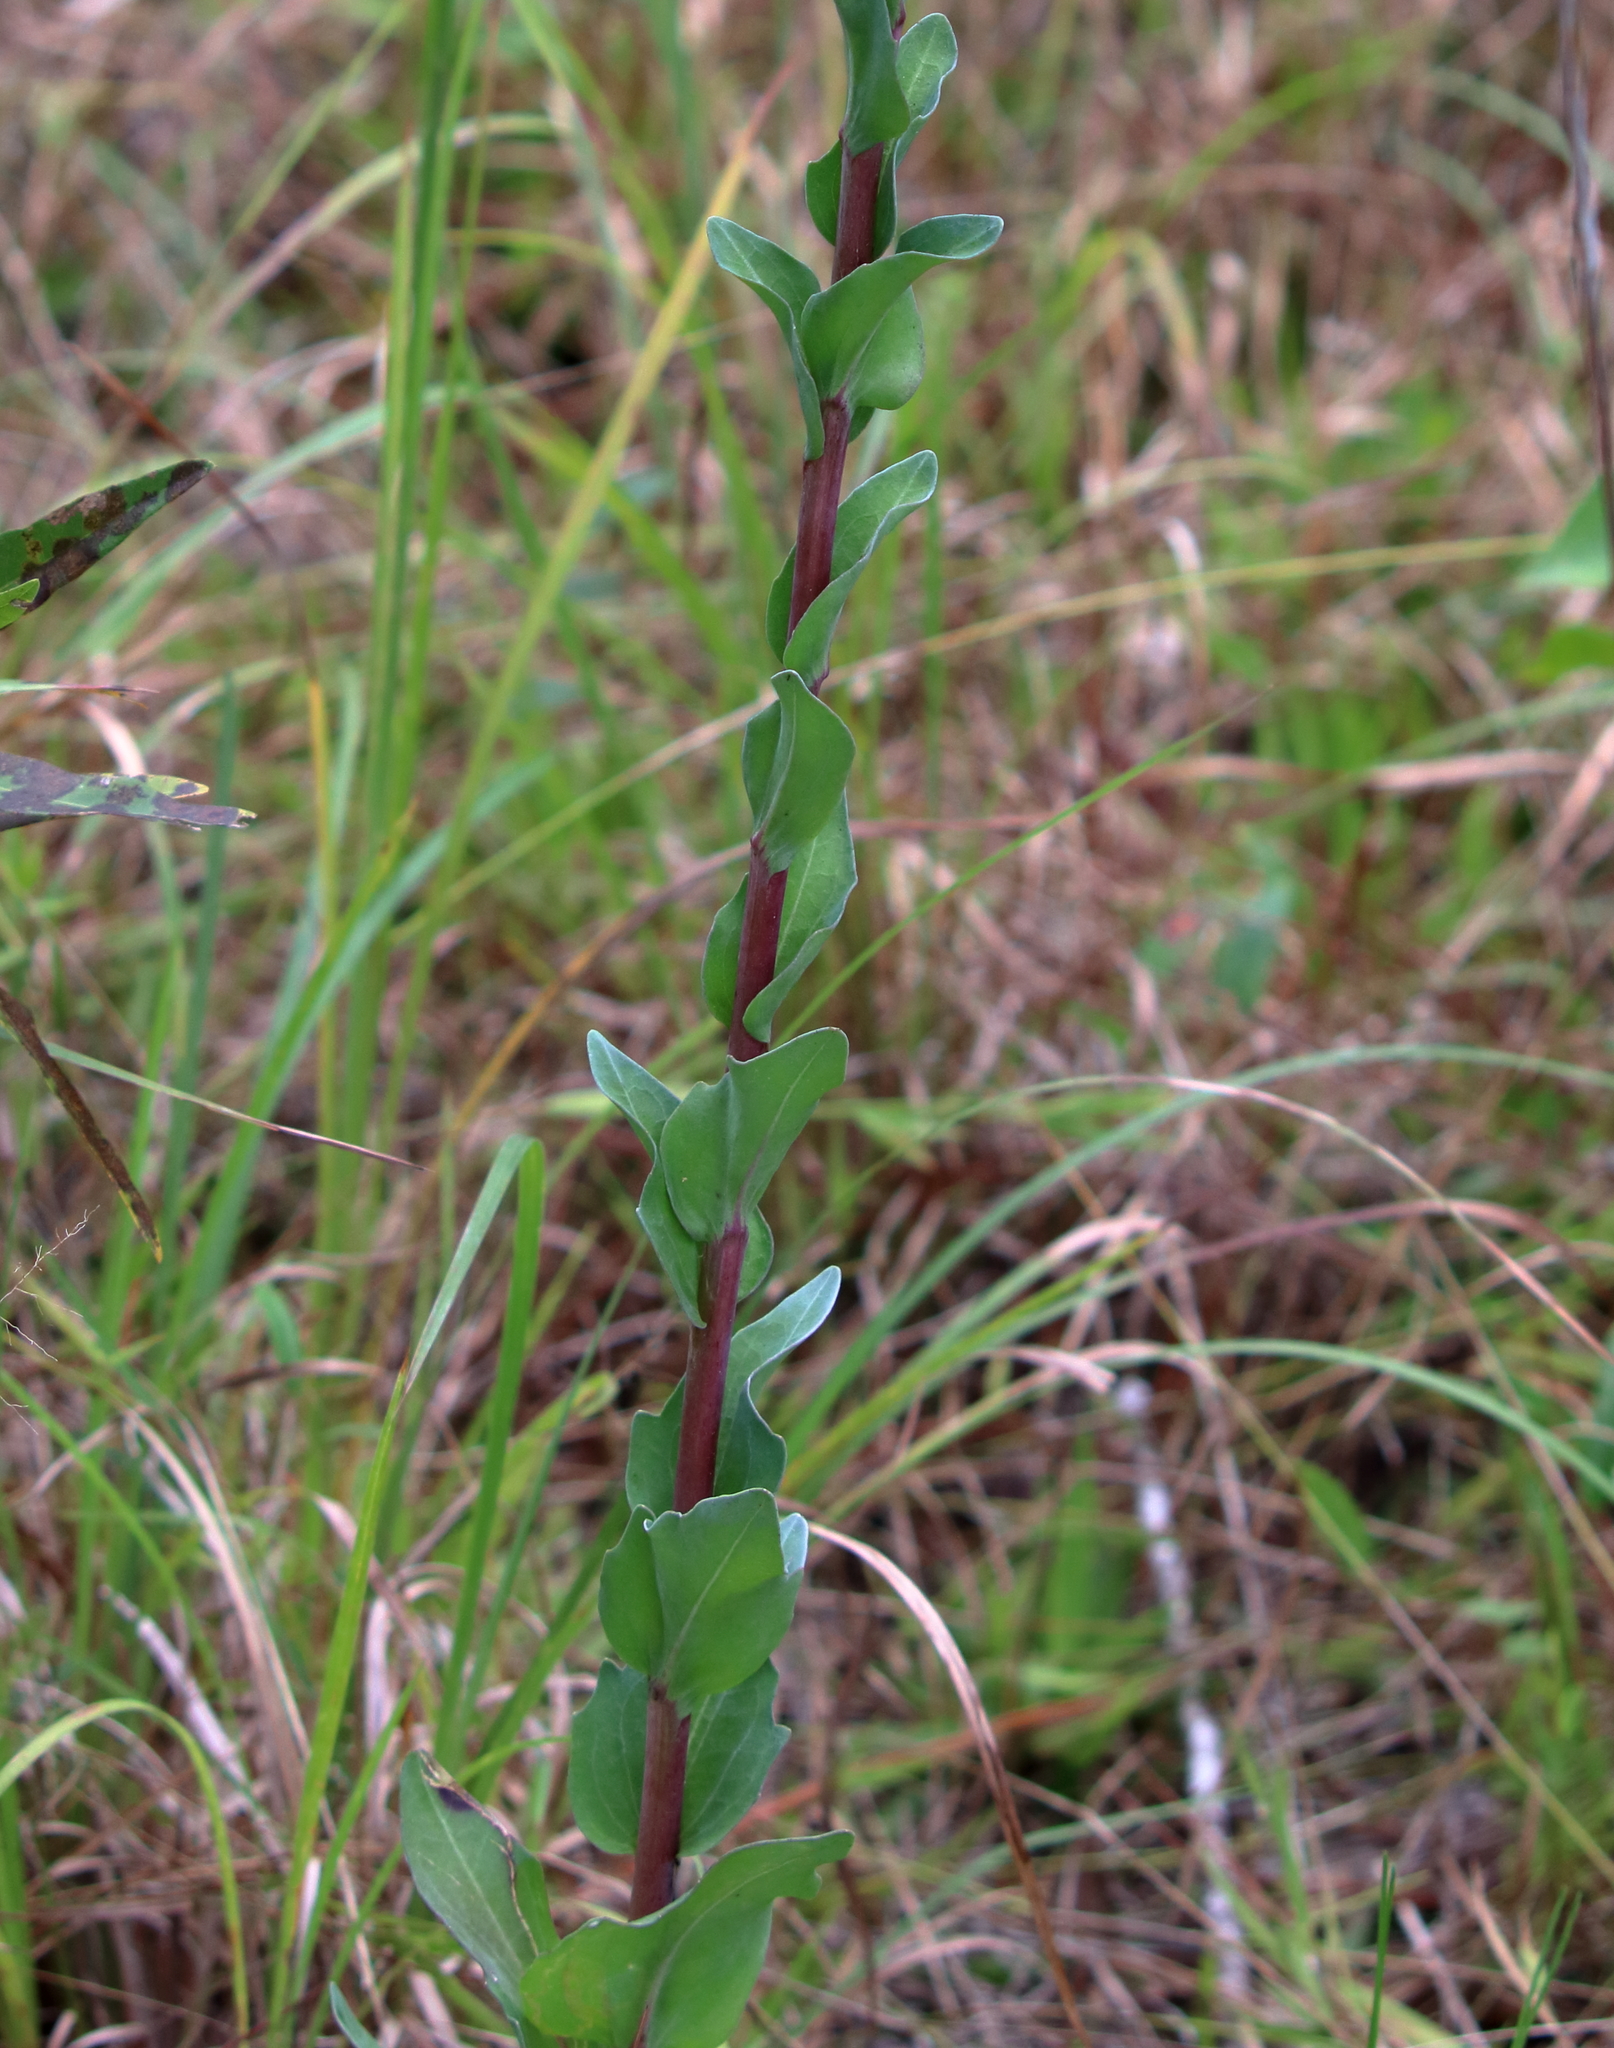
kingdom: Plantae
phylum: Tracheophyta
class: Magnoliopsida
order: Asterales
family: Asteraceae
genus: Carphephorus
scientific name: Carphephorus odoratissimus
